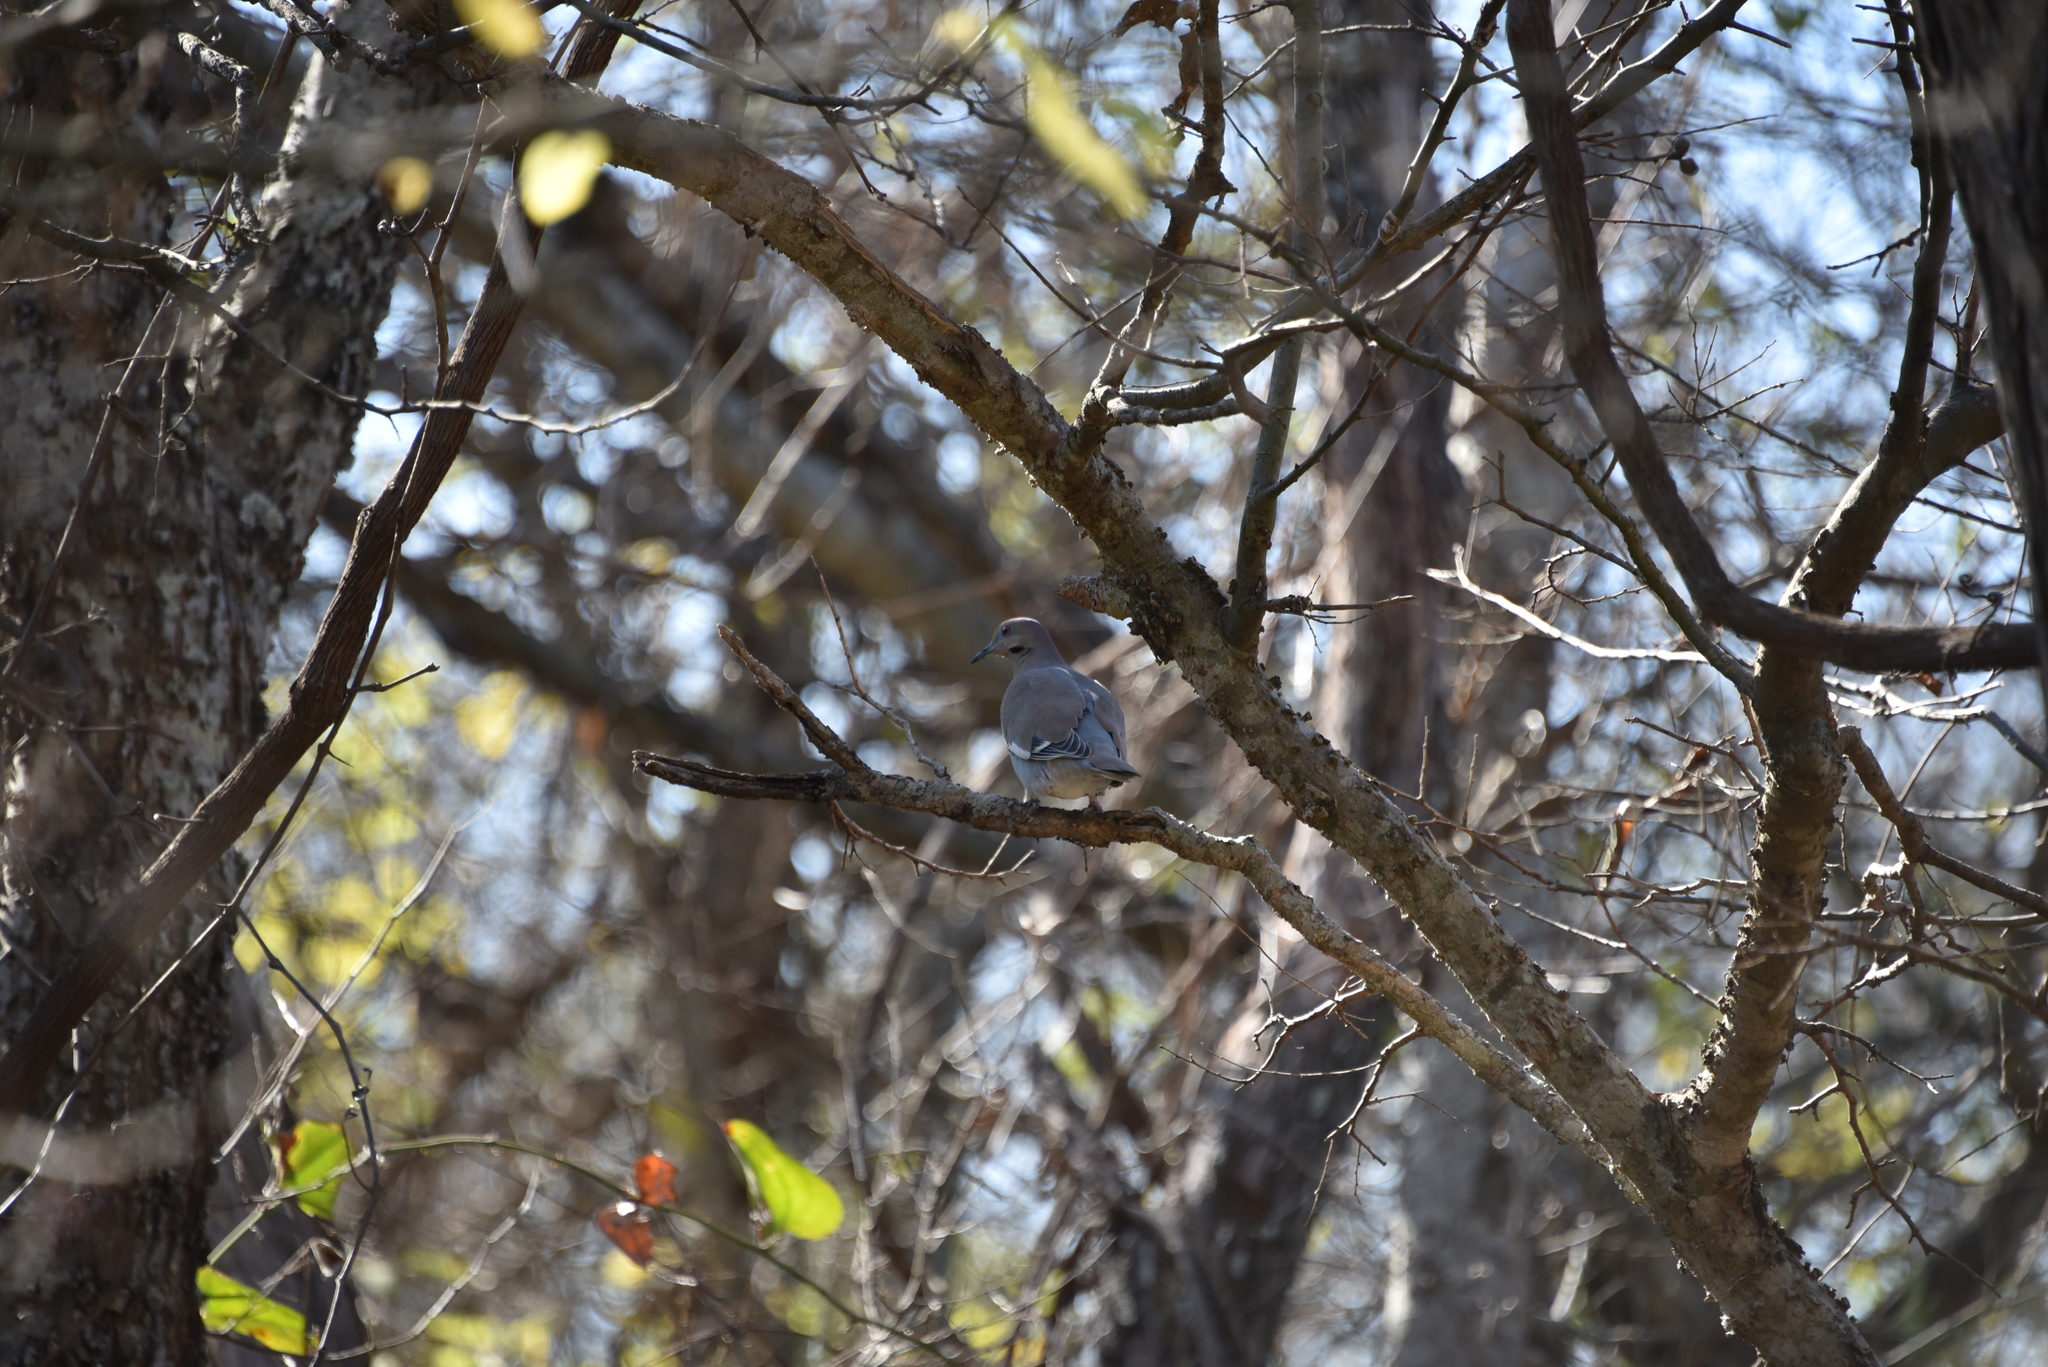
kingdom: Animalia
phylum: Chordata
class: Aves
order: Columbiformes
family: Columbidae
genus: Zenaida
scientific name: Zenaida asiatica
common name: White-winged dove
